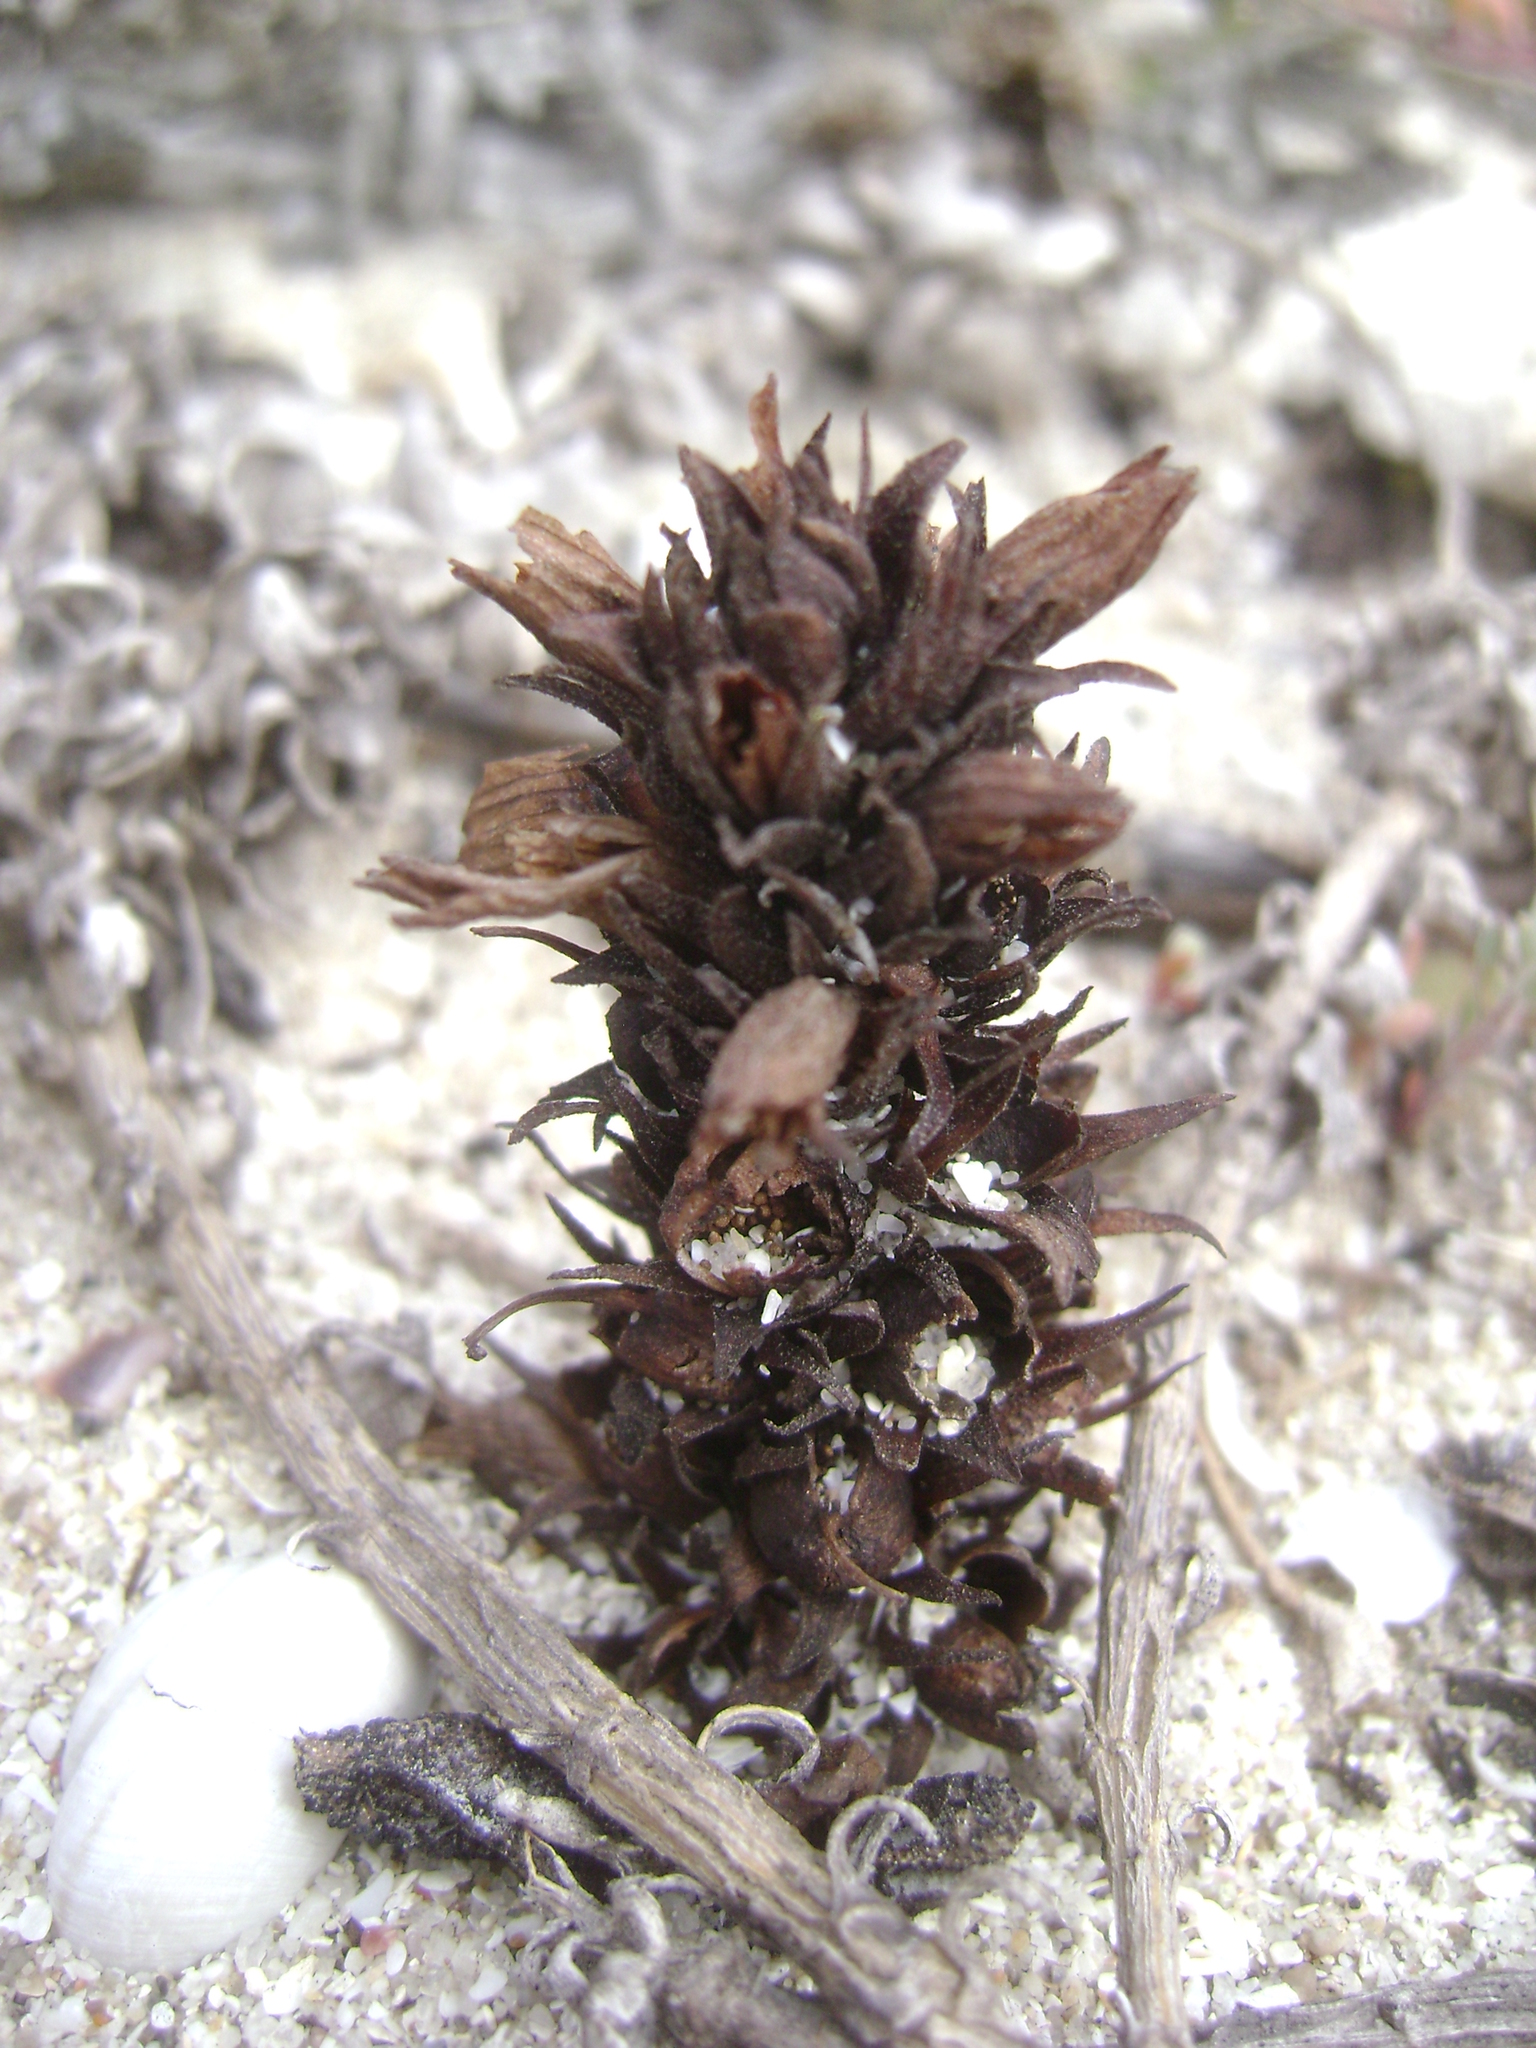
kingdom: Plantae
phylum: Tracheophyta
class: Magnoliopsida
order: Lamiales
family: Orobanchaceae
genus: Aphyllon
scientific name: Aphyllon parishii
